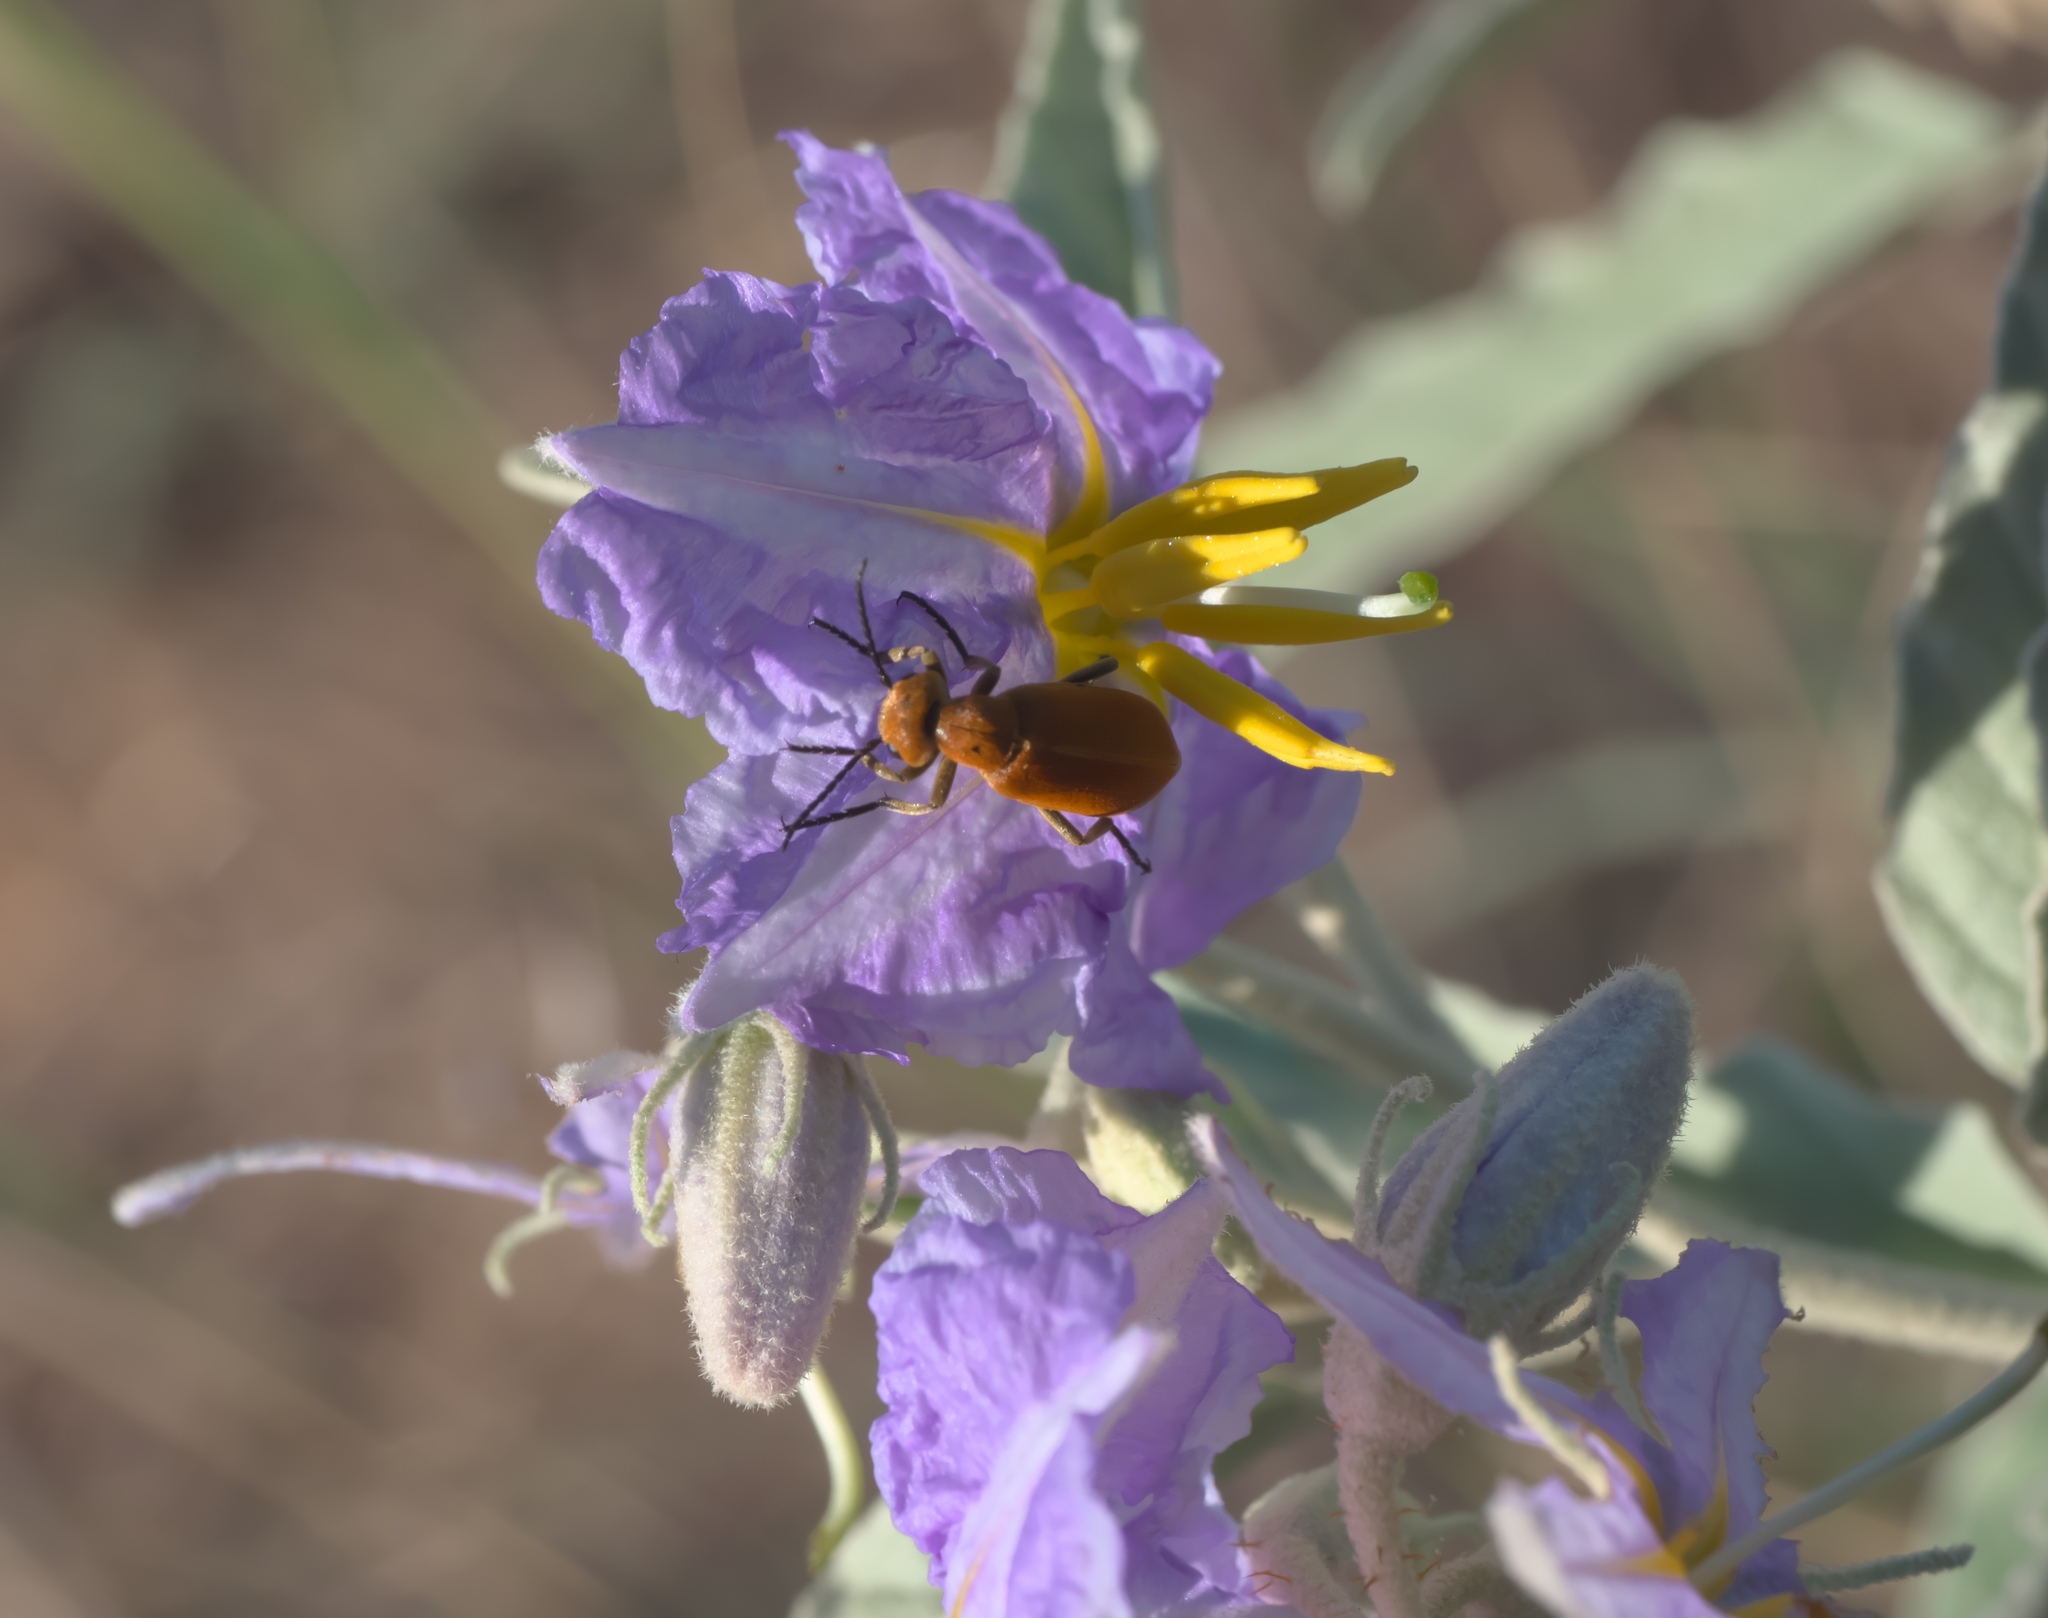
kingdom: Plantae
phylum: Tracheophyta
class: Magnoliopsida
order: Solanales
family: Solanaceae
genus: Solanum
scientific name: Solanum elaeagnifolium
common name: Silverleaf nightshade
